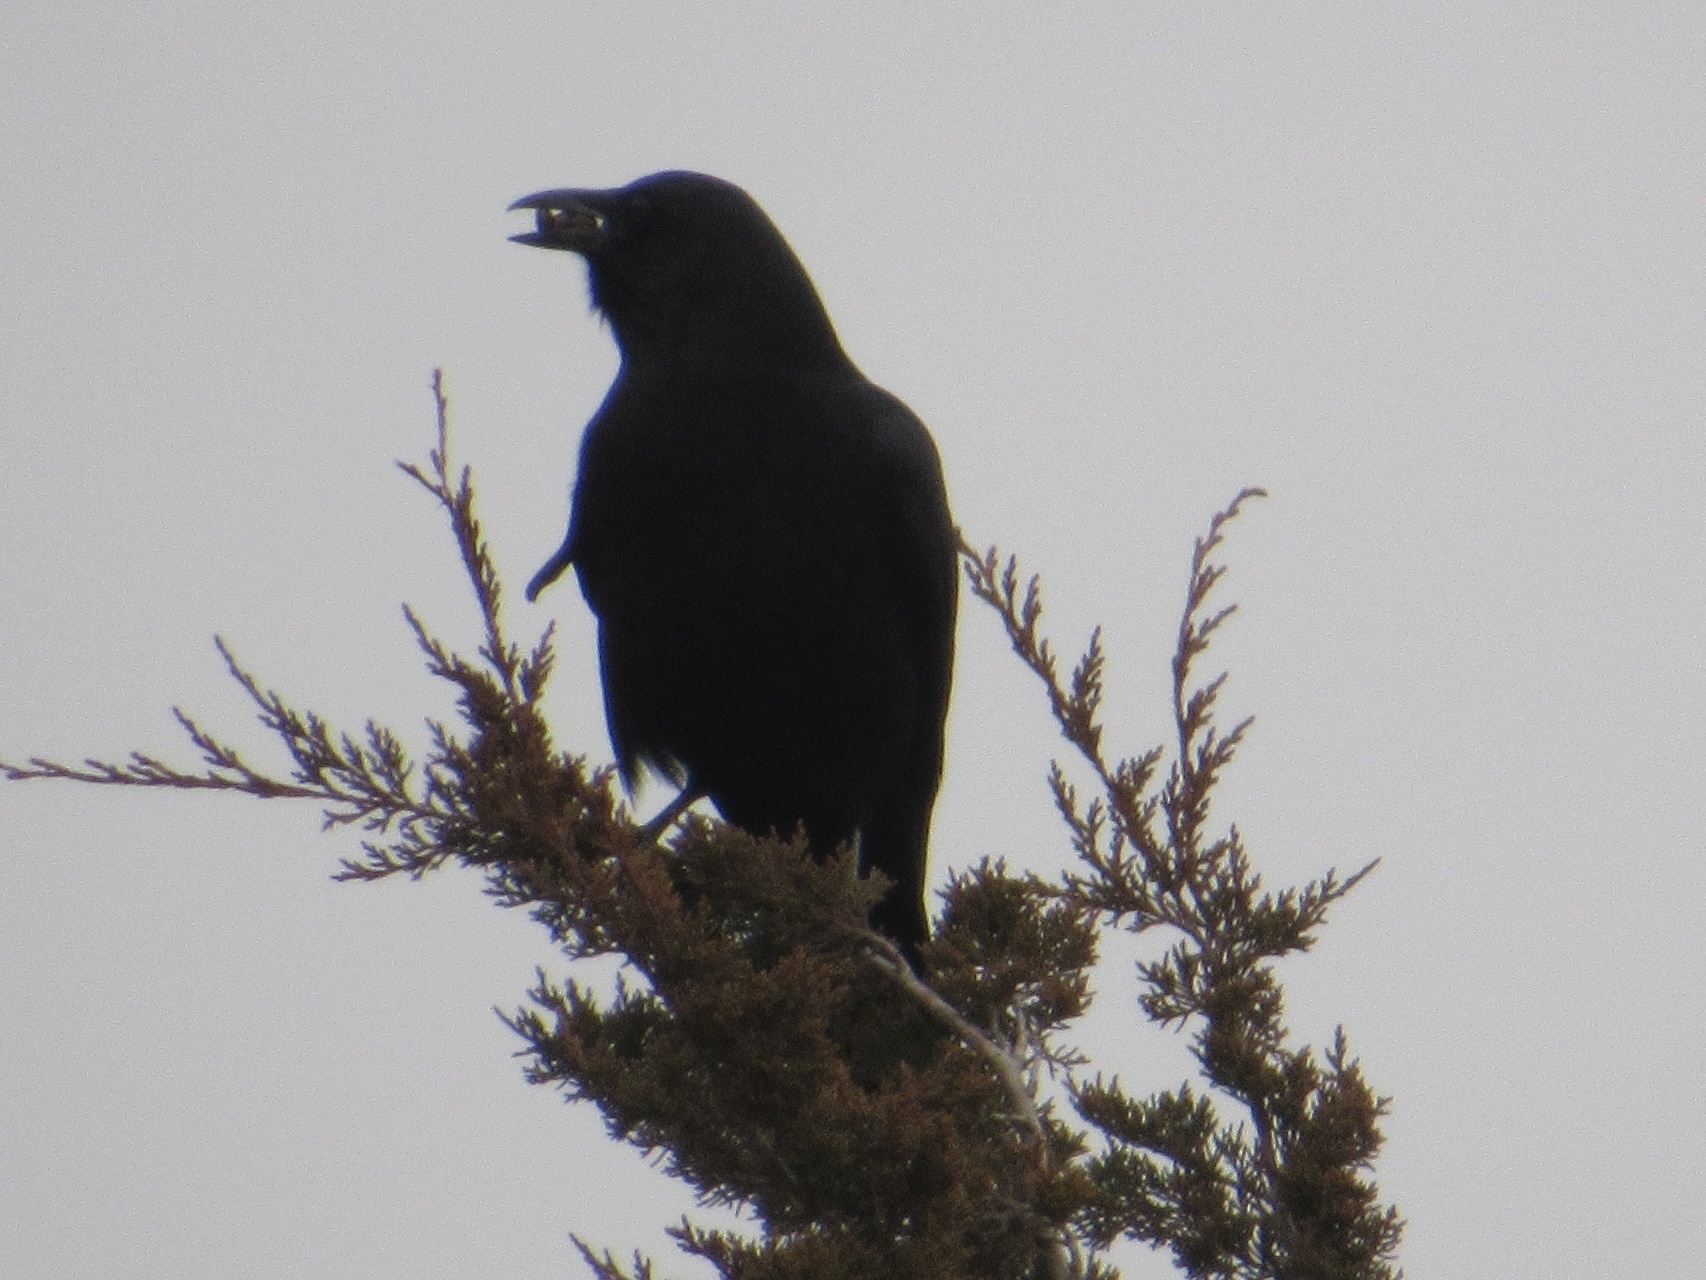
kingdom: Animalia
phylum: Chordata
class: Aves
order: Passeriformes
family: Corvidae
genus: Corvus
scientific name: Corvus brachyrhynchos
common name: American crow
